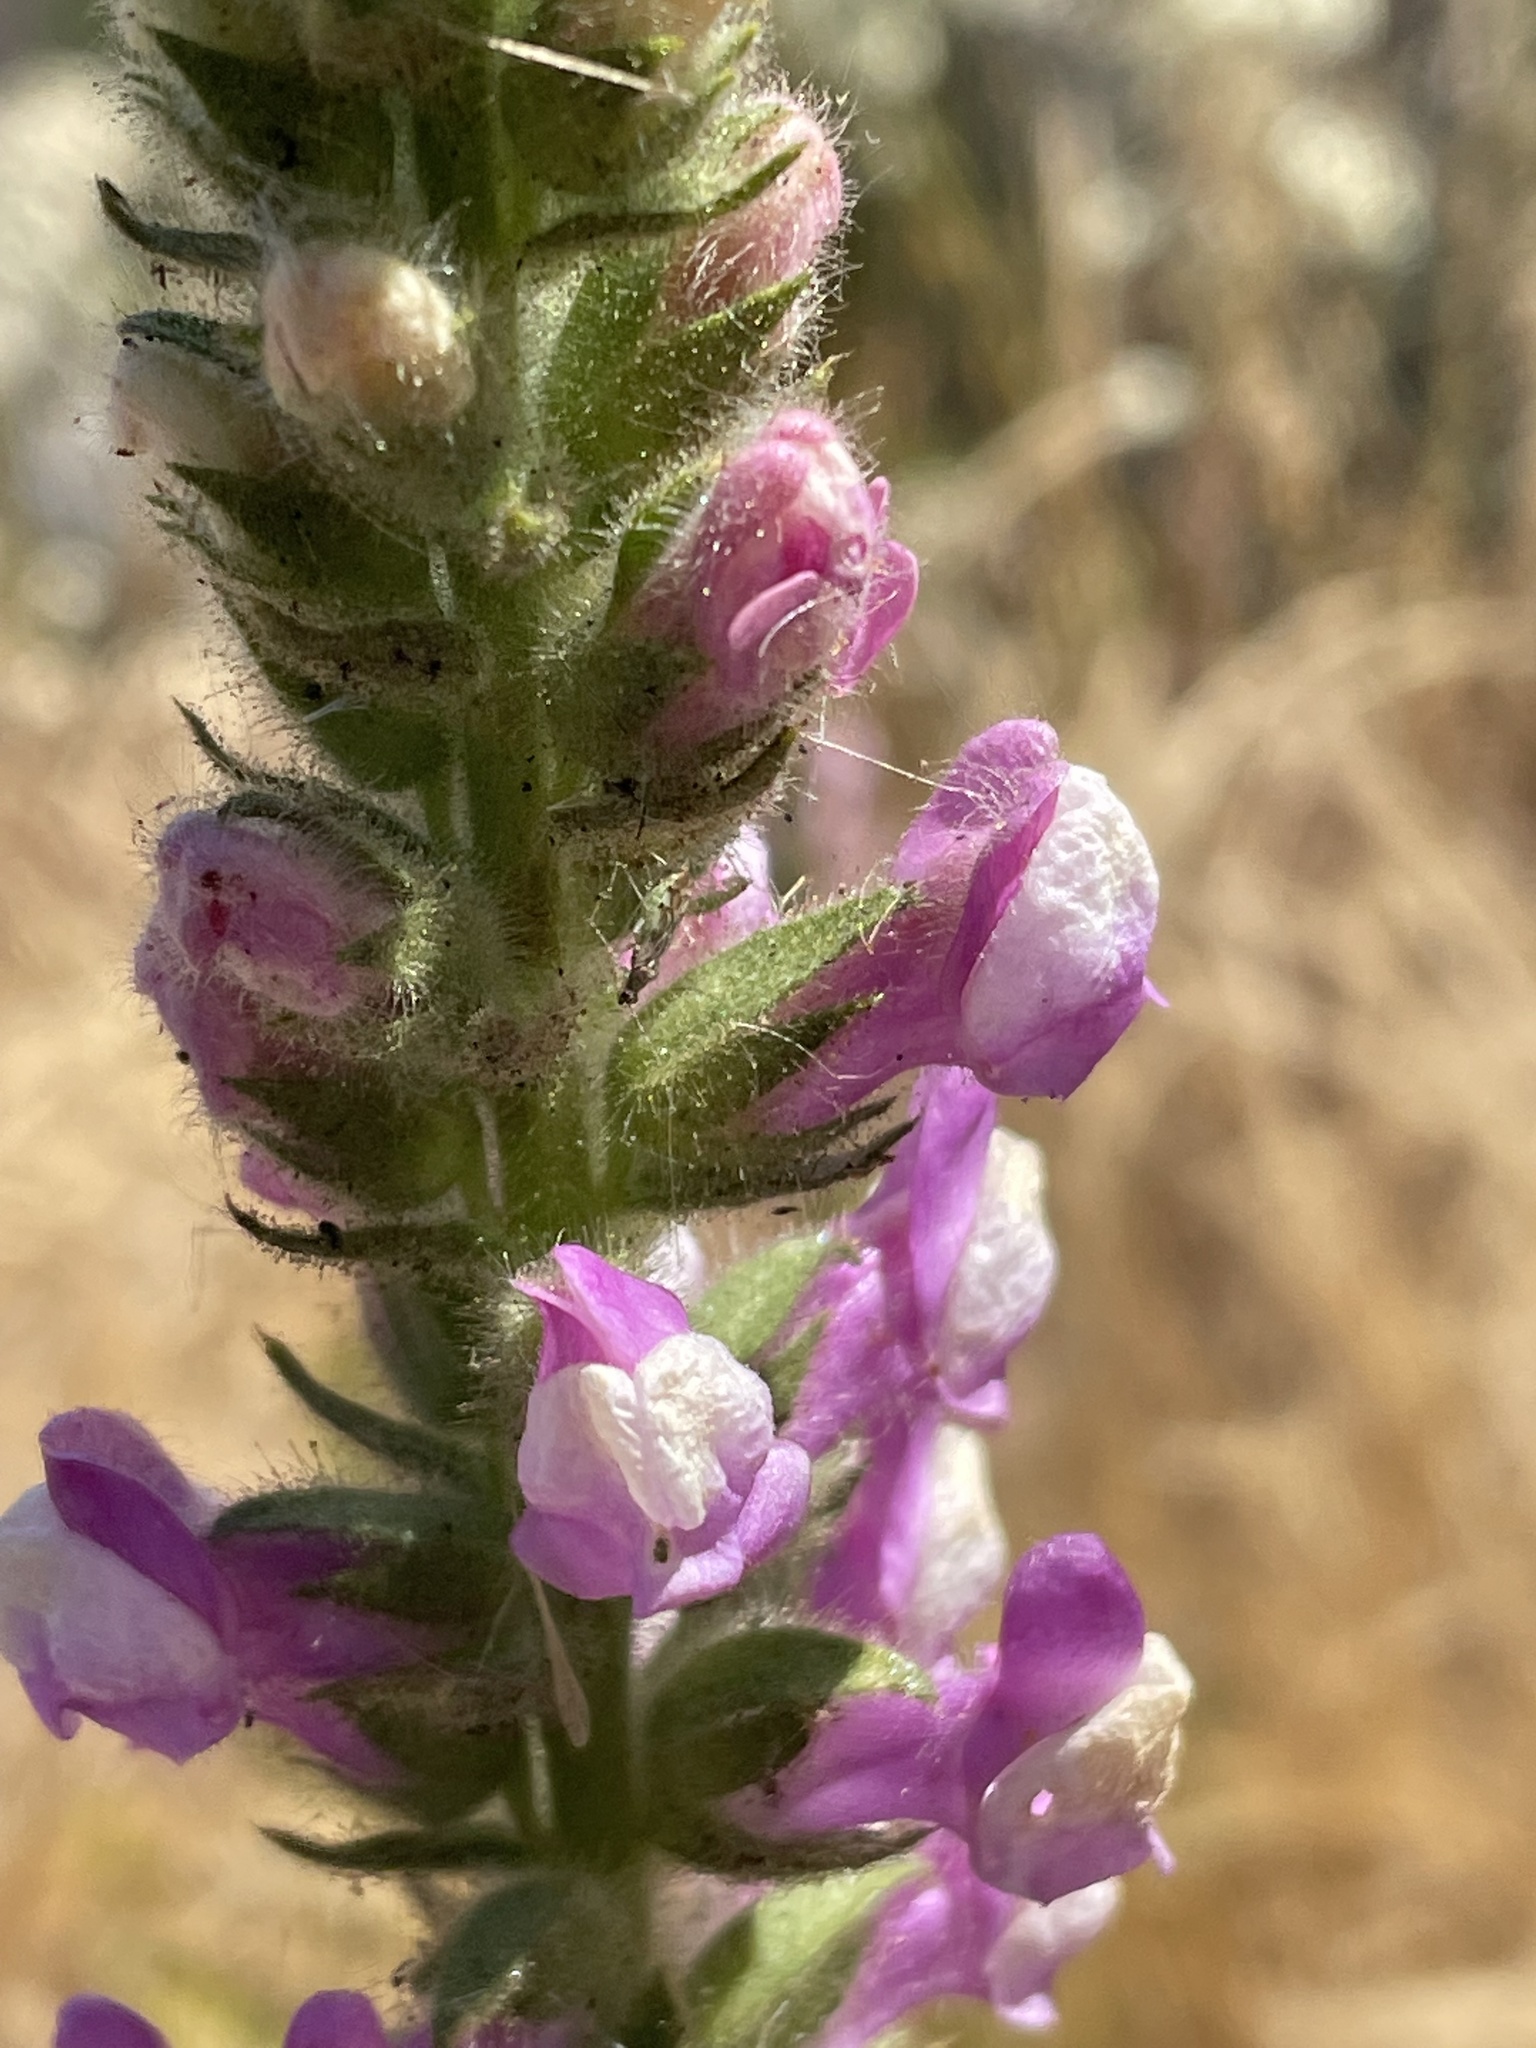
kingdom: Plantae
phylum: Tracheophyta
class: Magnoliopsida
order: Lamiales
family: Plantaginaceae
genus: Sairocarpus
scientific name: Sairocarpus multiflorus
